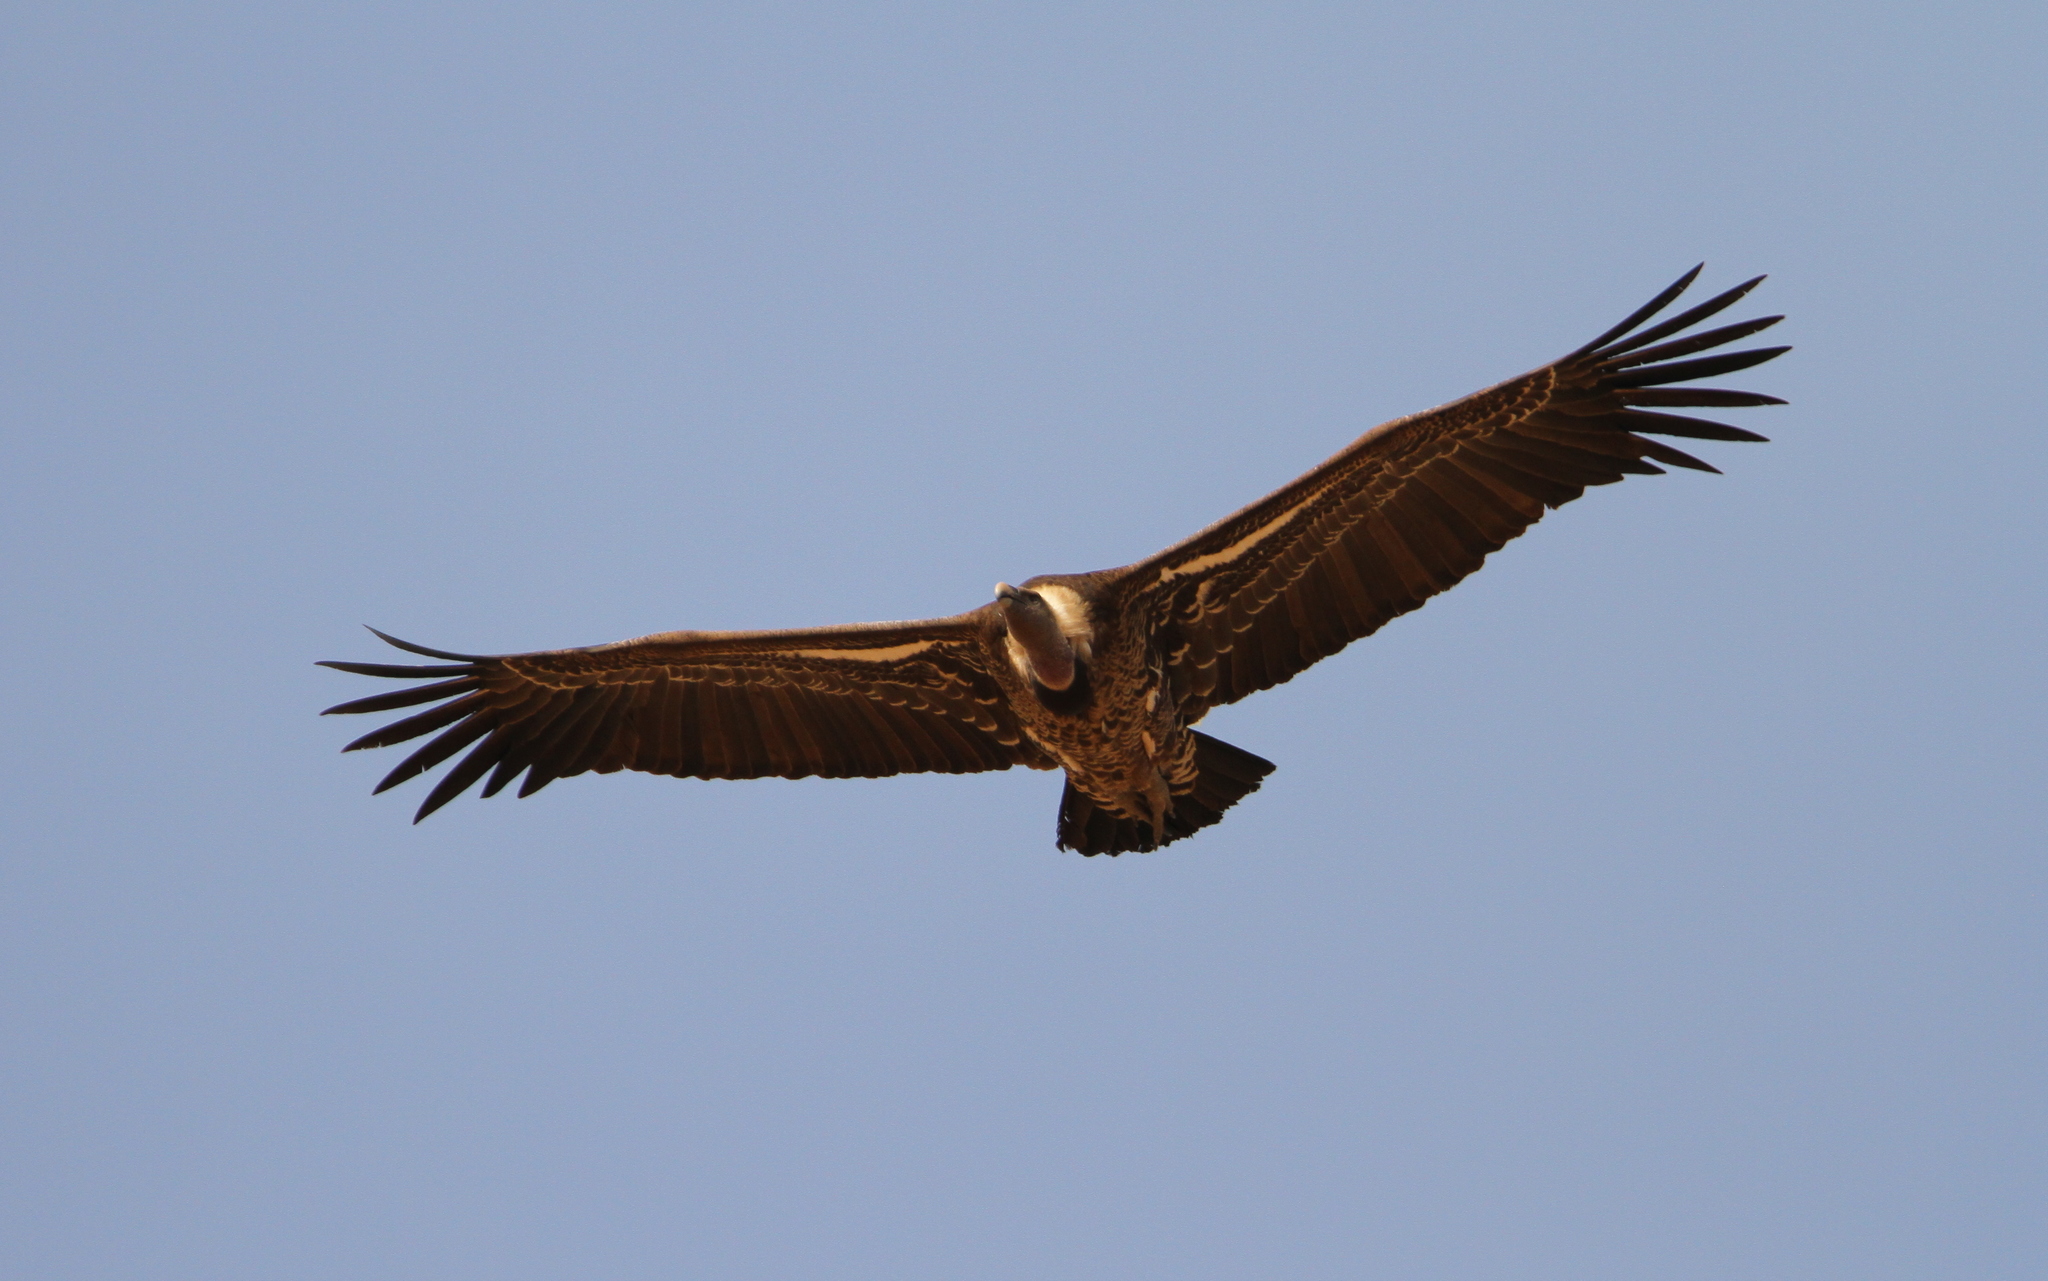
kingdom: Animalia
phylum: Chordata
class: Aves
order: Accipitriformes
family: Accipitridae
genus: Gyps
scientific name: Gyps rueppellii
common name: Rüppell's vulture
